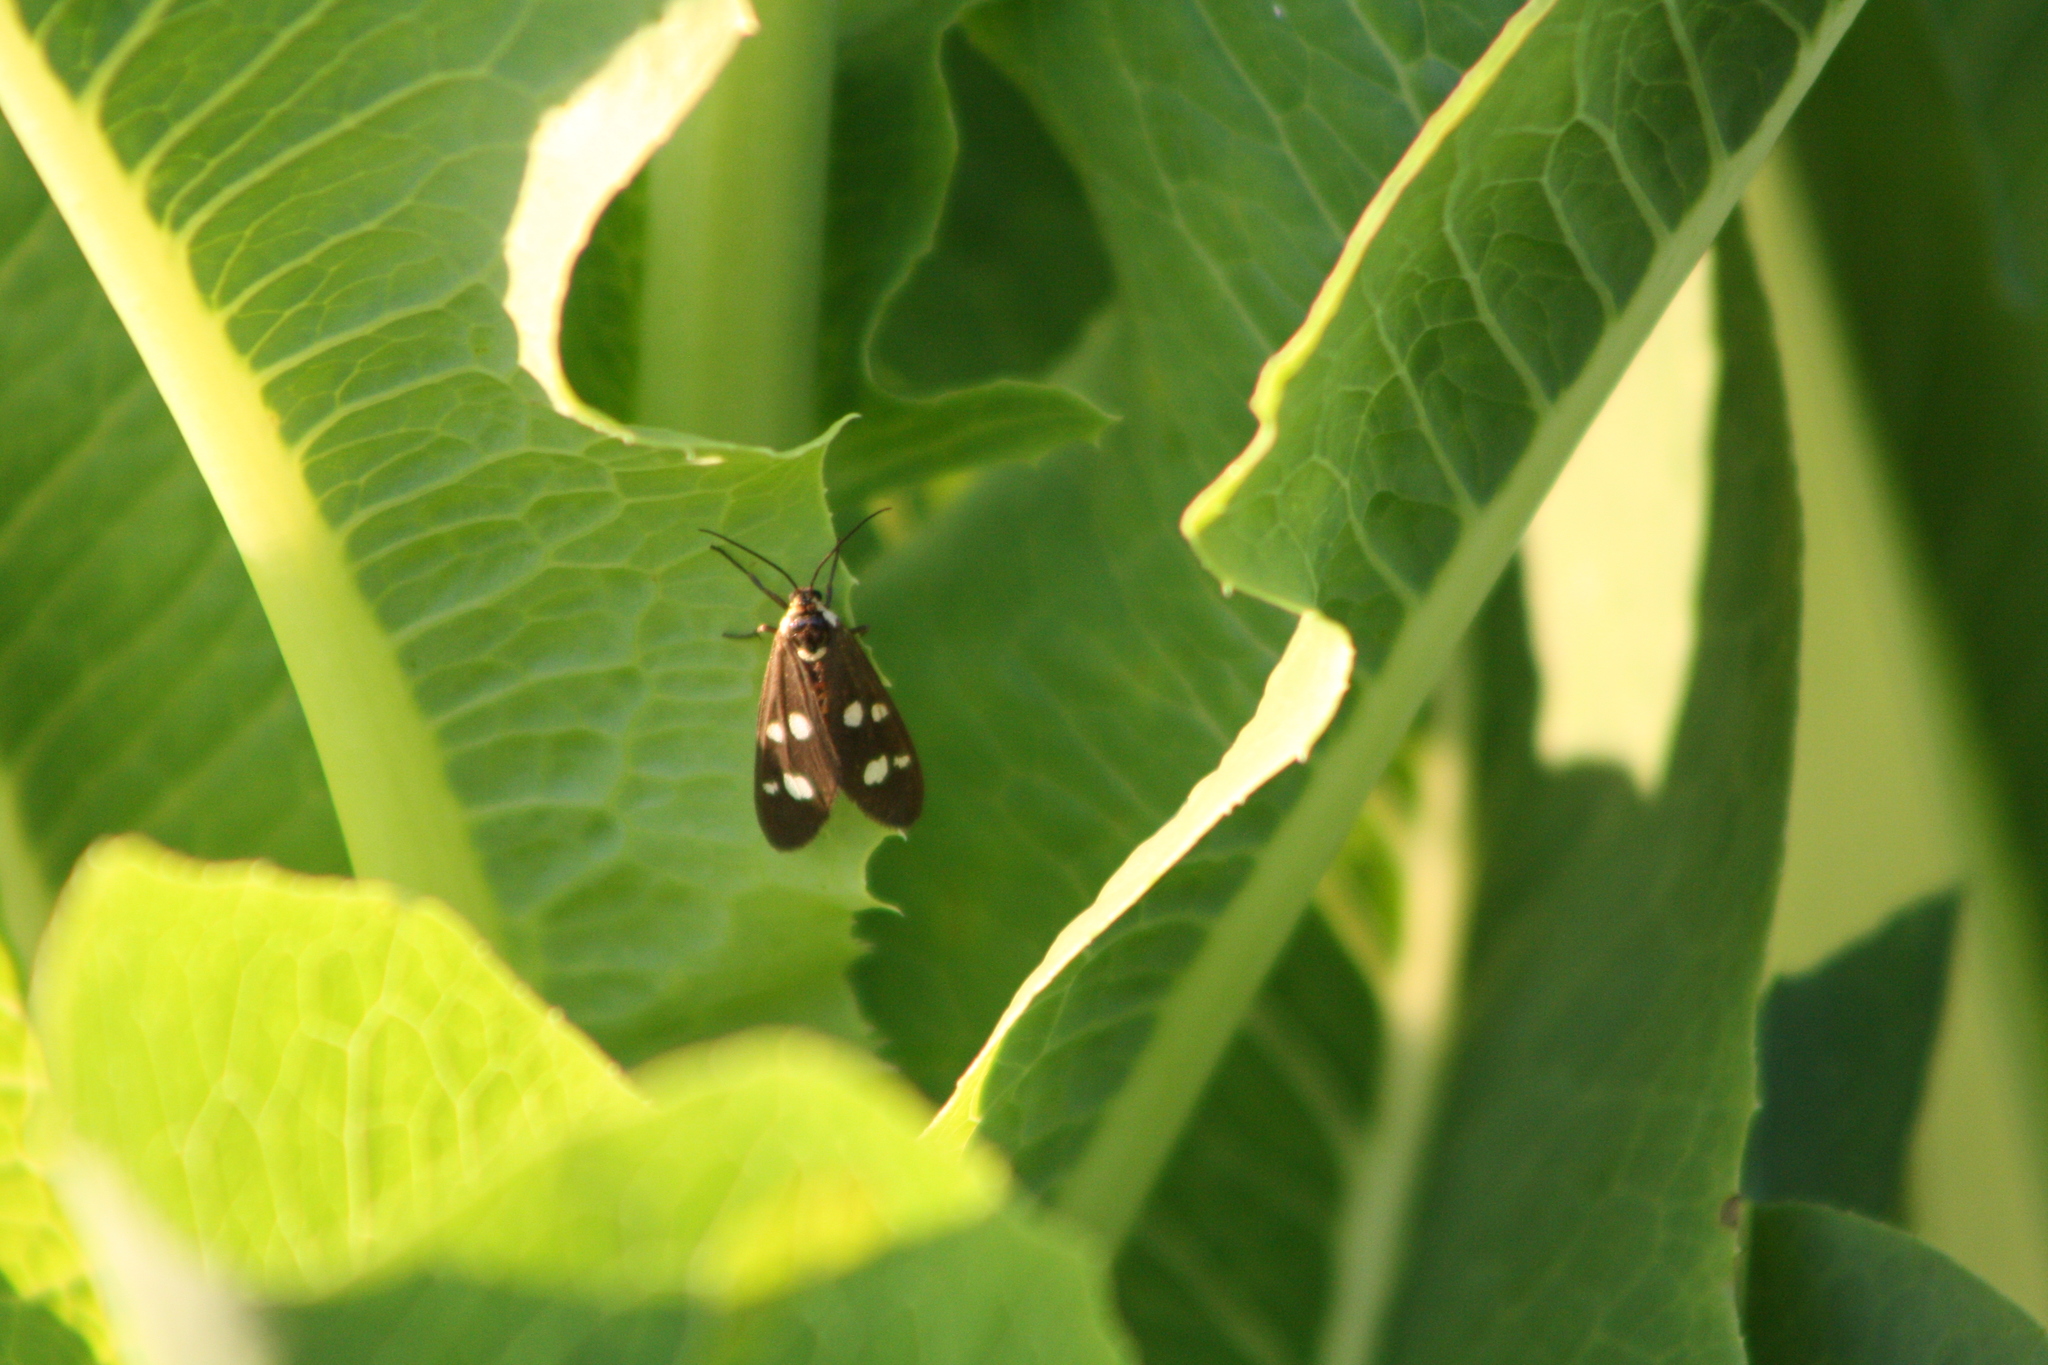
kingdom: Animalia
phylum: Arthropoda
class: Insecta
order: Lepidoptera
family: Erebidae
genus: Dysauxes
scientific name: Dysauxes punctata
